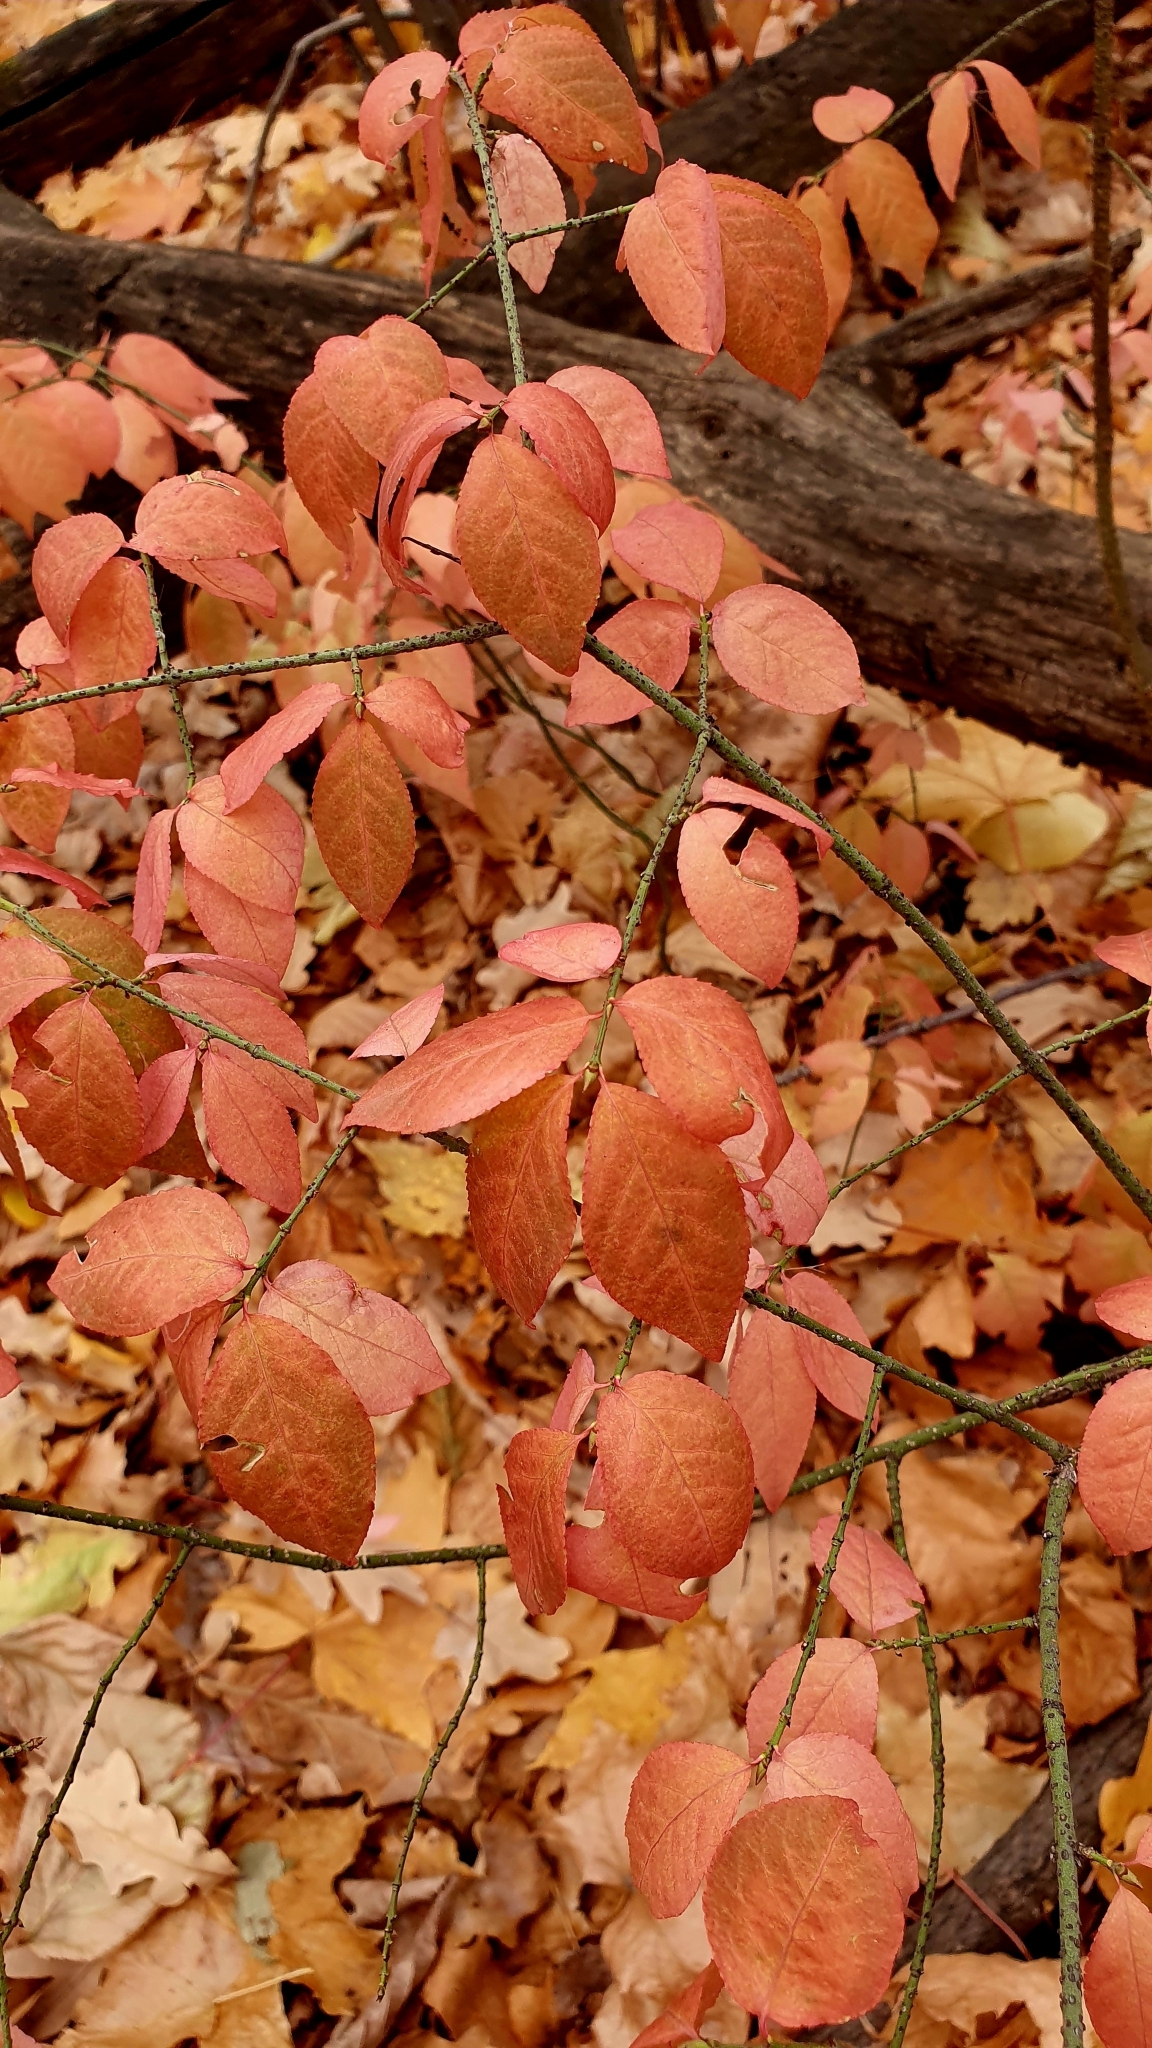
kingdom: Plantae
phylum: Tracheophyta
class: Magnoliopsida
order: Celastrales
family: Celastraceae
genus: Euonymus
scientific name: Euonymus verrucosus
